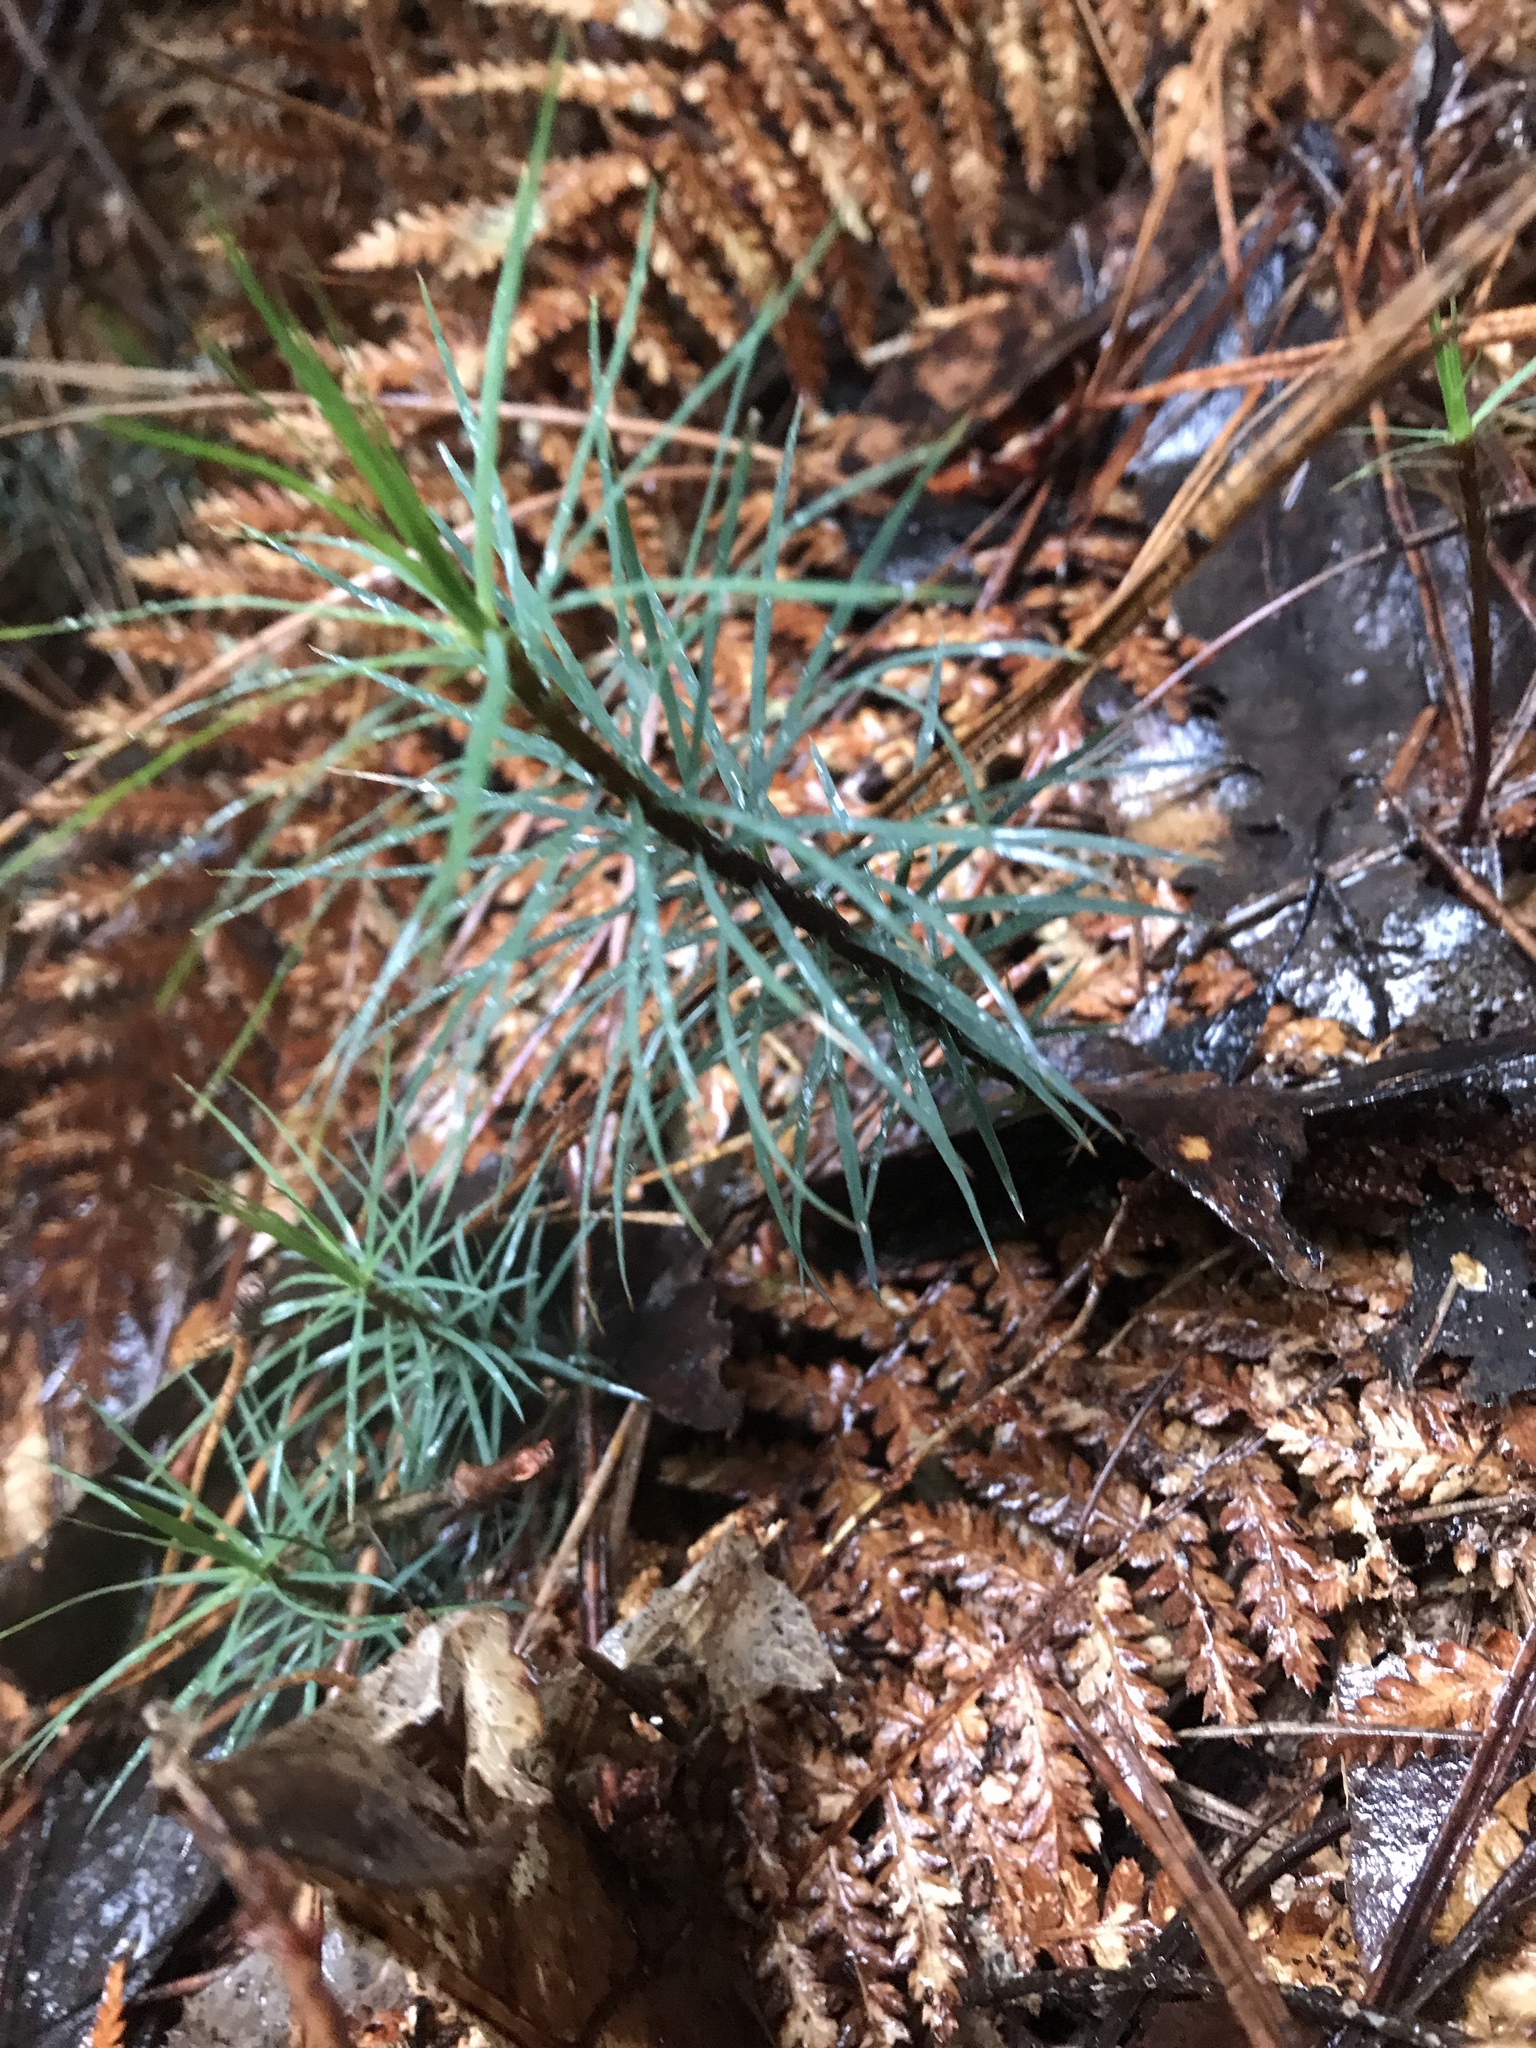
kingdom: Plantae
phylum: Bryophyta
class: Polytrichopsida
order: Polytrichales
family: Polytrichaceae
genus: Dawsonia
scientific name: Dawsonia superba
